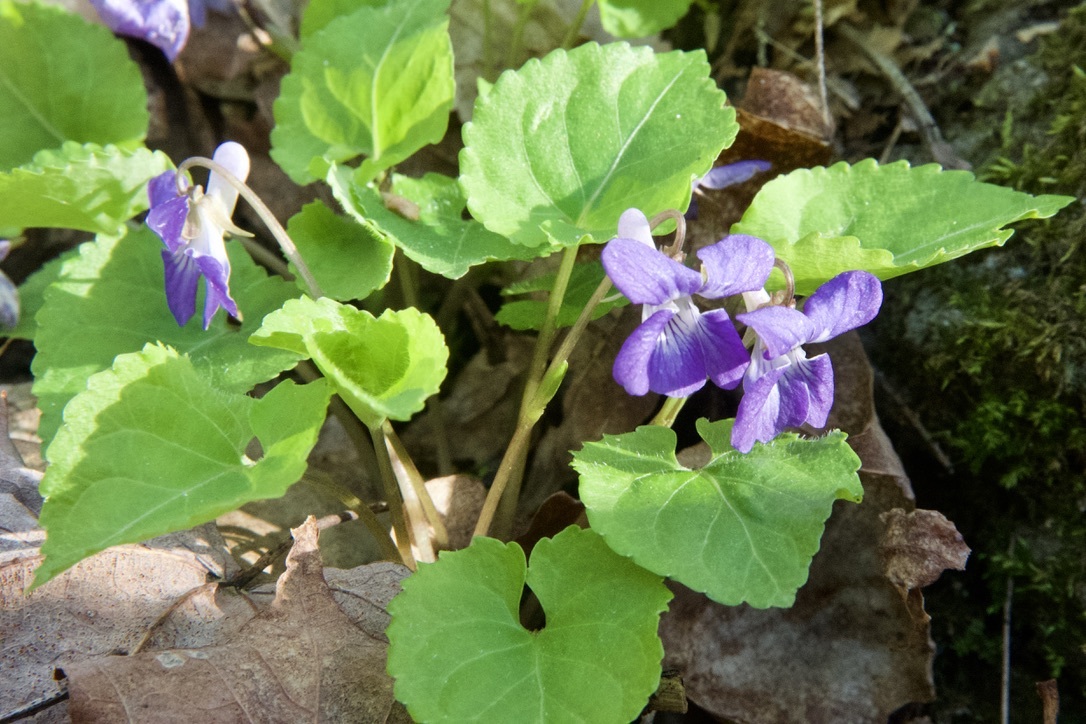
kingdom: Plantae
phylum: Tracheophyta
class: Magnoliopsida
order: Malpighiales
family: Violaceae
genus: Viola
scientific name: Viola selkirkii
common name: Selkirk's violet
